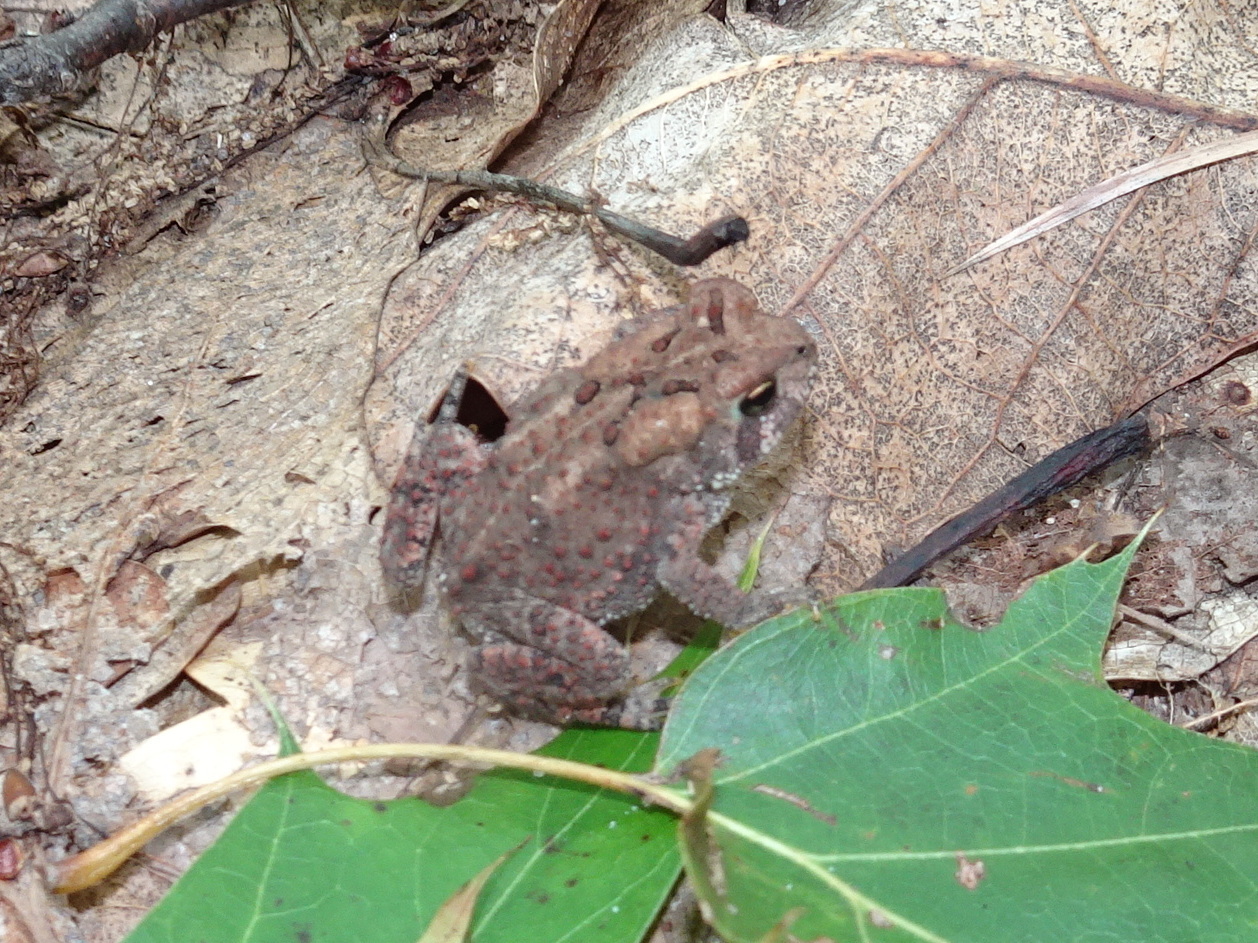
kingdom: Animalia
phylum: Chordata
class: Amphibia
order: Anura
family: Bufonidae
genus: Anaxyrus
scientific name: Anaxyrus americanus
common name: American toad
